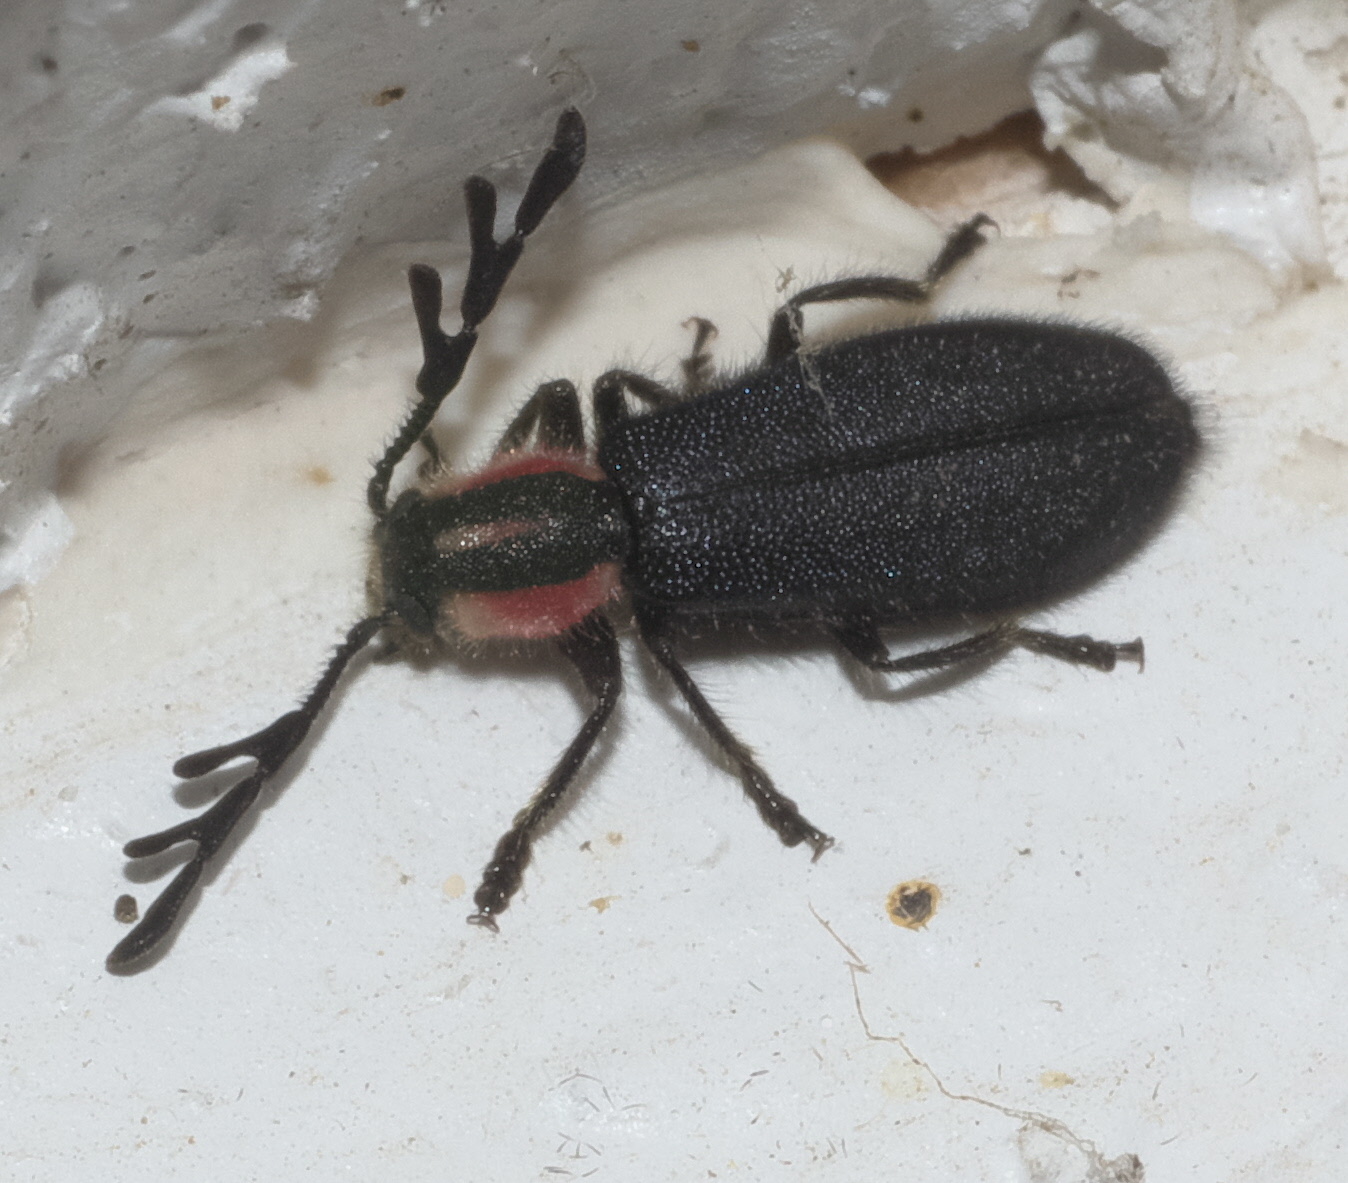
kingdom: Animalia
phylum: Arthropoda
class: Insecta
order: Coleoptera
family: Cleridae
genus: Chariessa
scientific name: Chariessa pilosa
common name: Pilose checkered beetle
